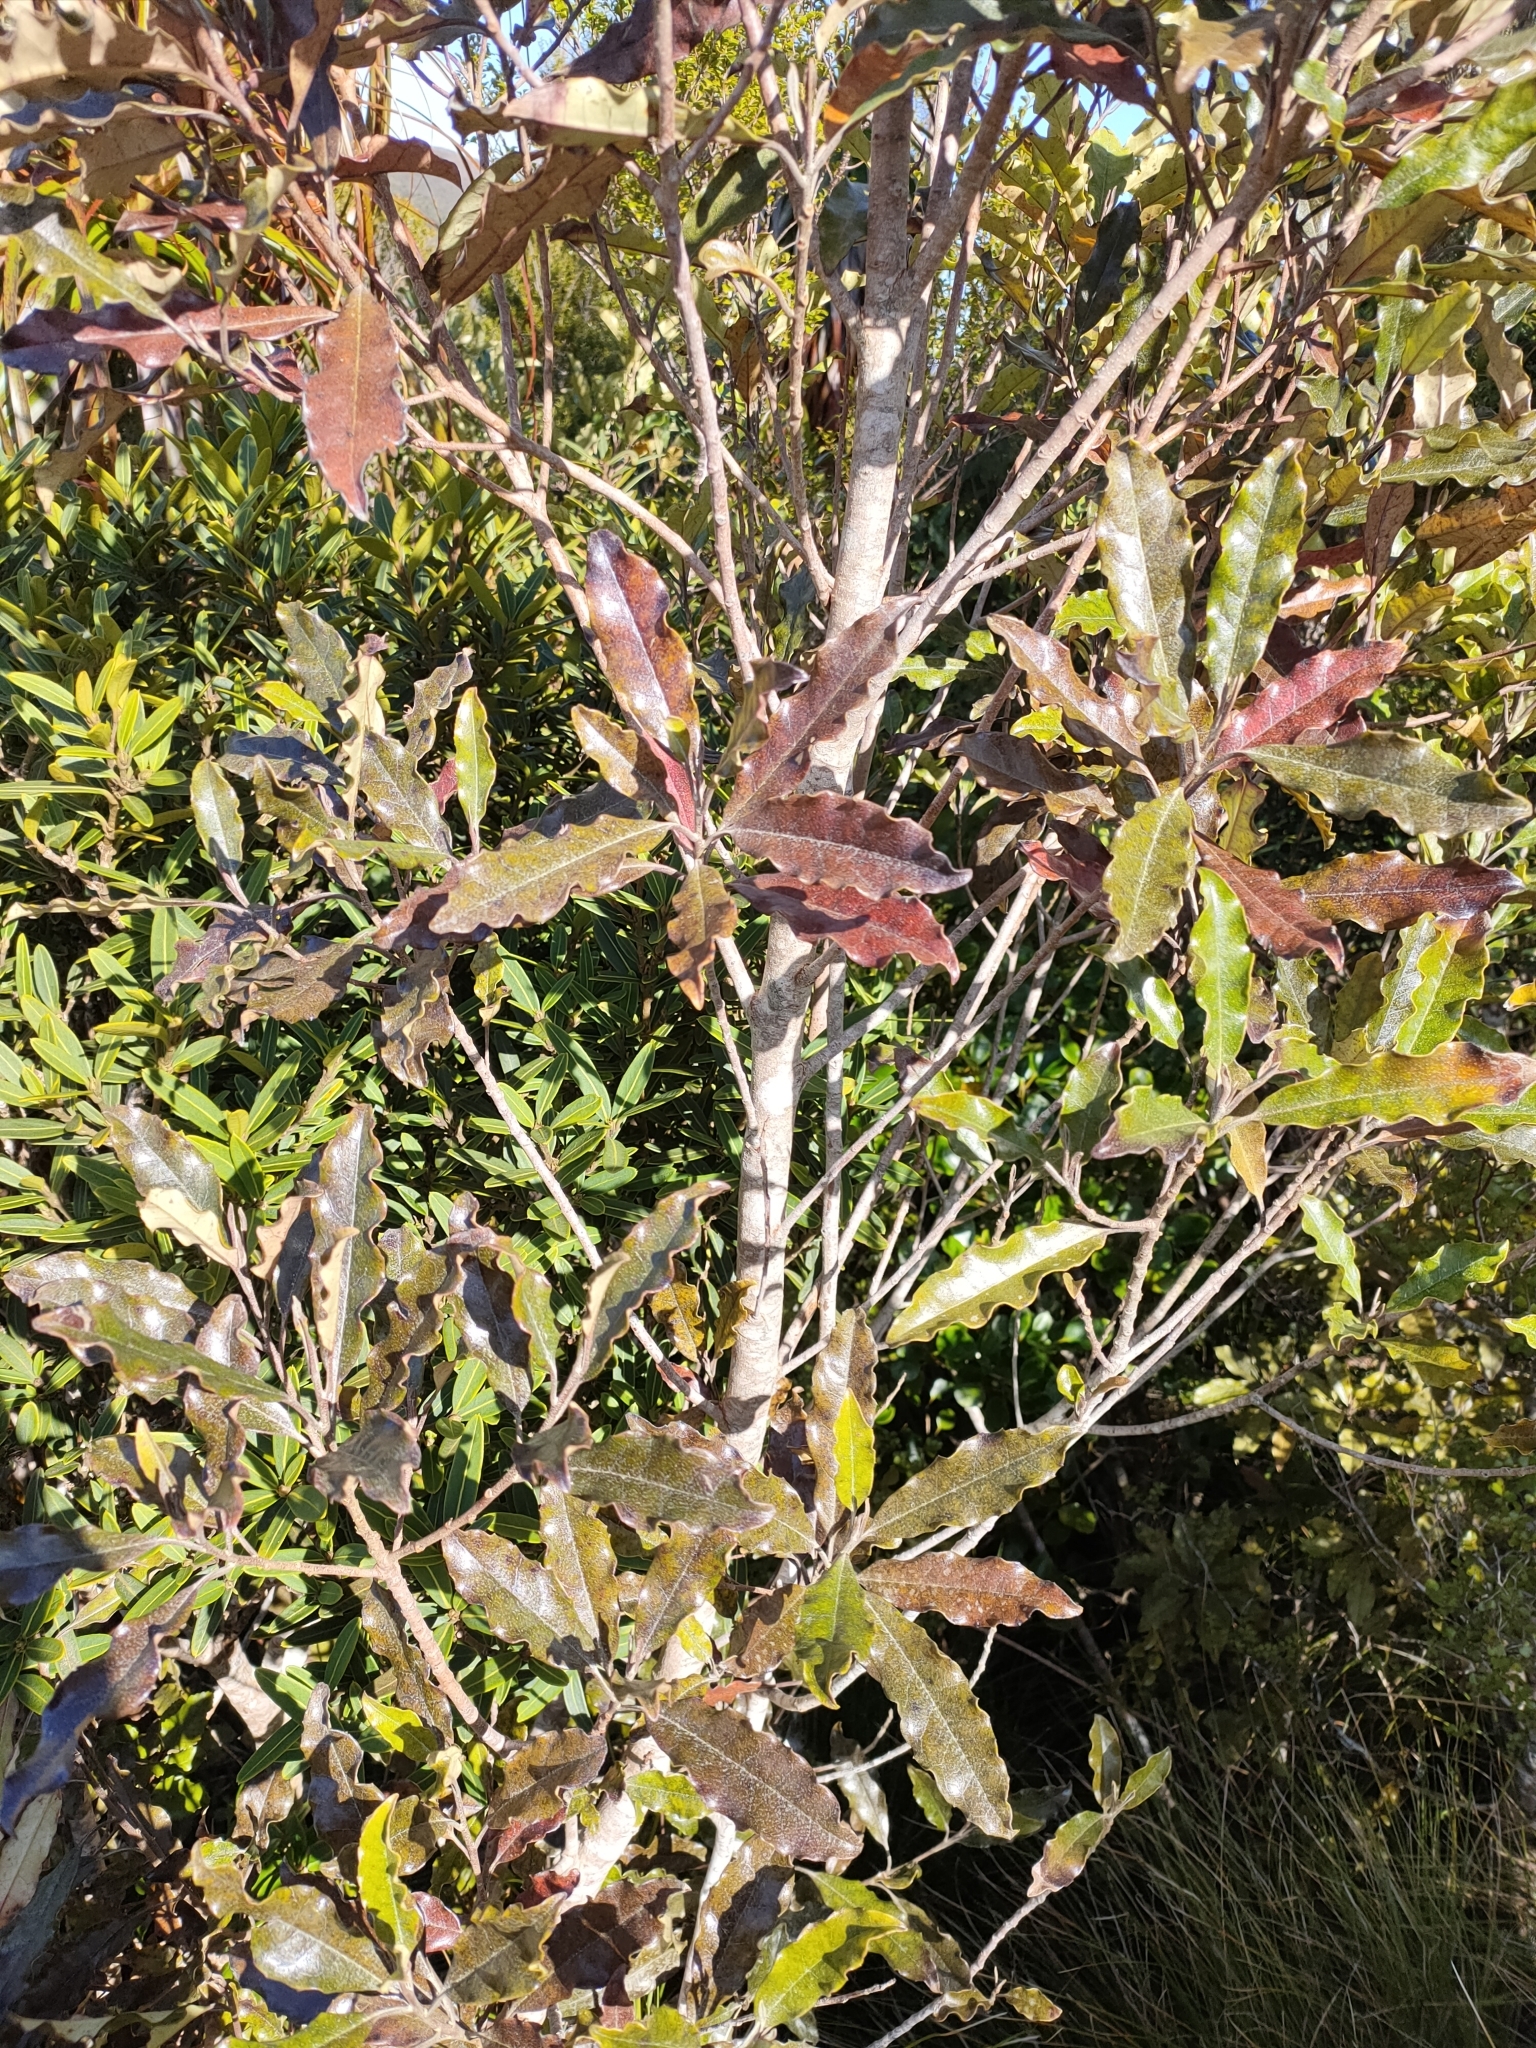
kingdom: Plantae
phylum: Tracheophyta
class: Magnoliopsida
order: Paracryphiales
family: Paracryphiaceae
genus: Quintinia
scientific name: Quintinia serrata
